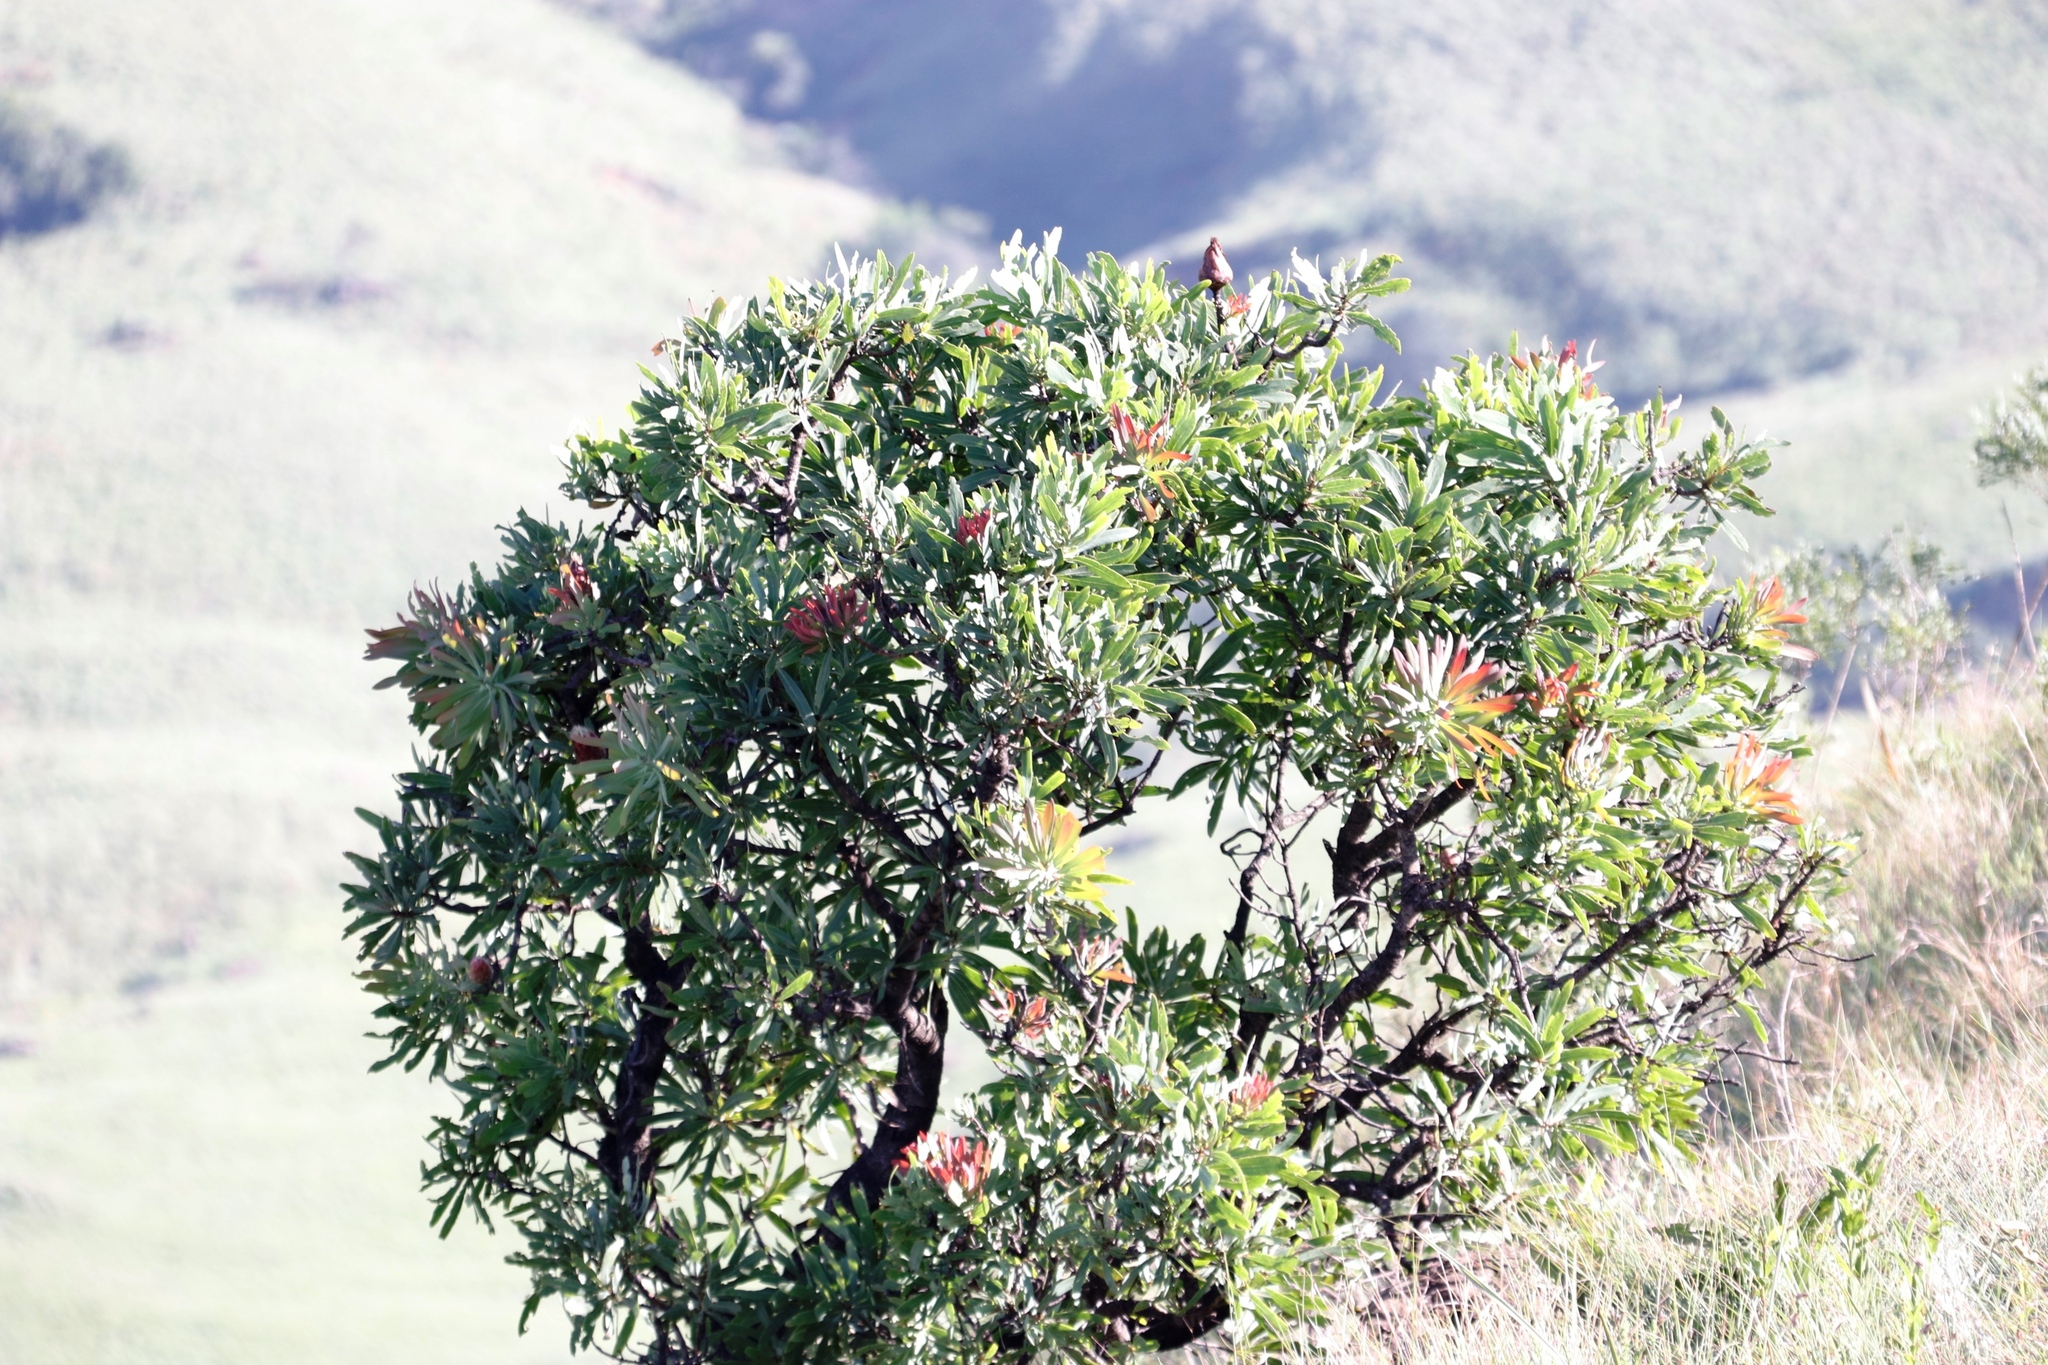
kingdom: Plantae
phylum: Tracheophyta
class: Magnoliopsida
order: Proteales
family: Proteaceae
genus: Protea
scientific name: Protea caffra
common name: Common sugarbush
